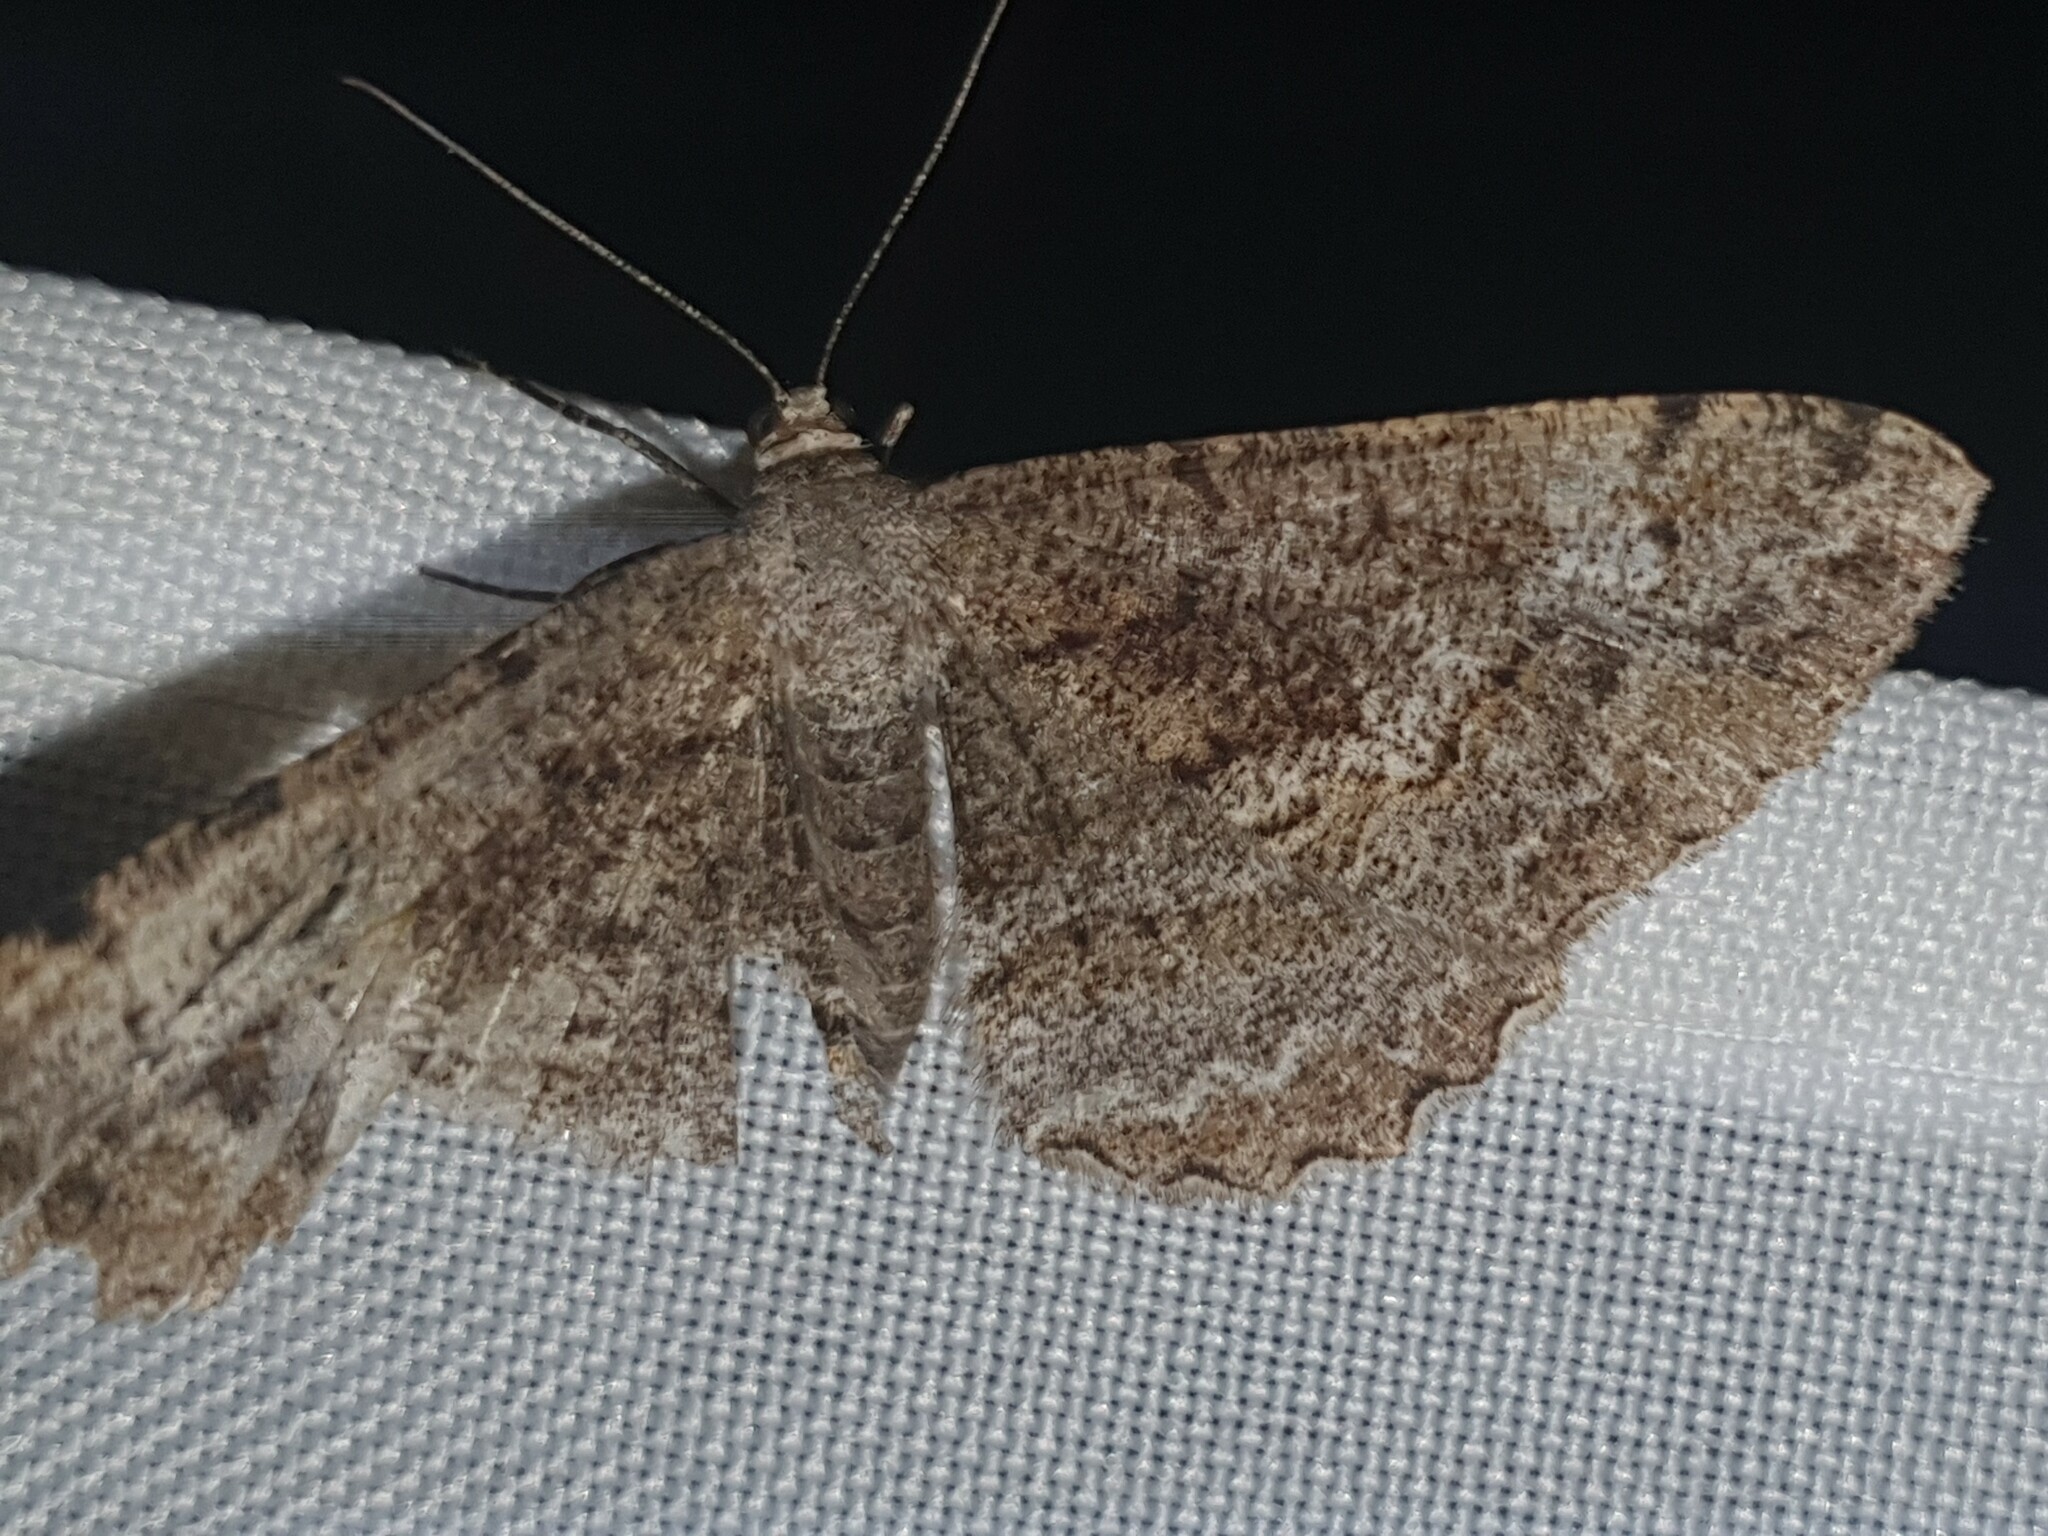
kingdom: Animalia
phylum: Arthropoda
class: Insecta
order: Lepidoptera
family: Geometridae
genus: Alcis
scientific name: Alcis repandata
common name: Mottled beauty
